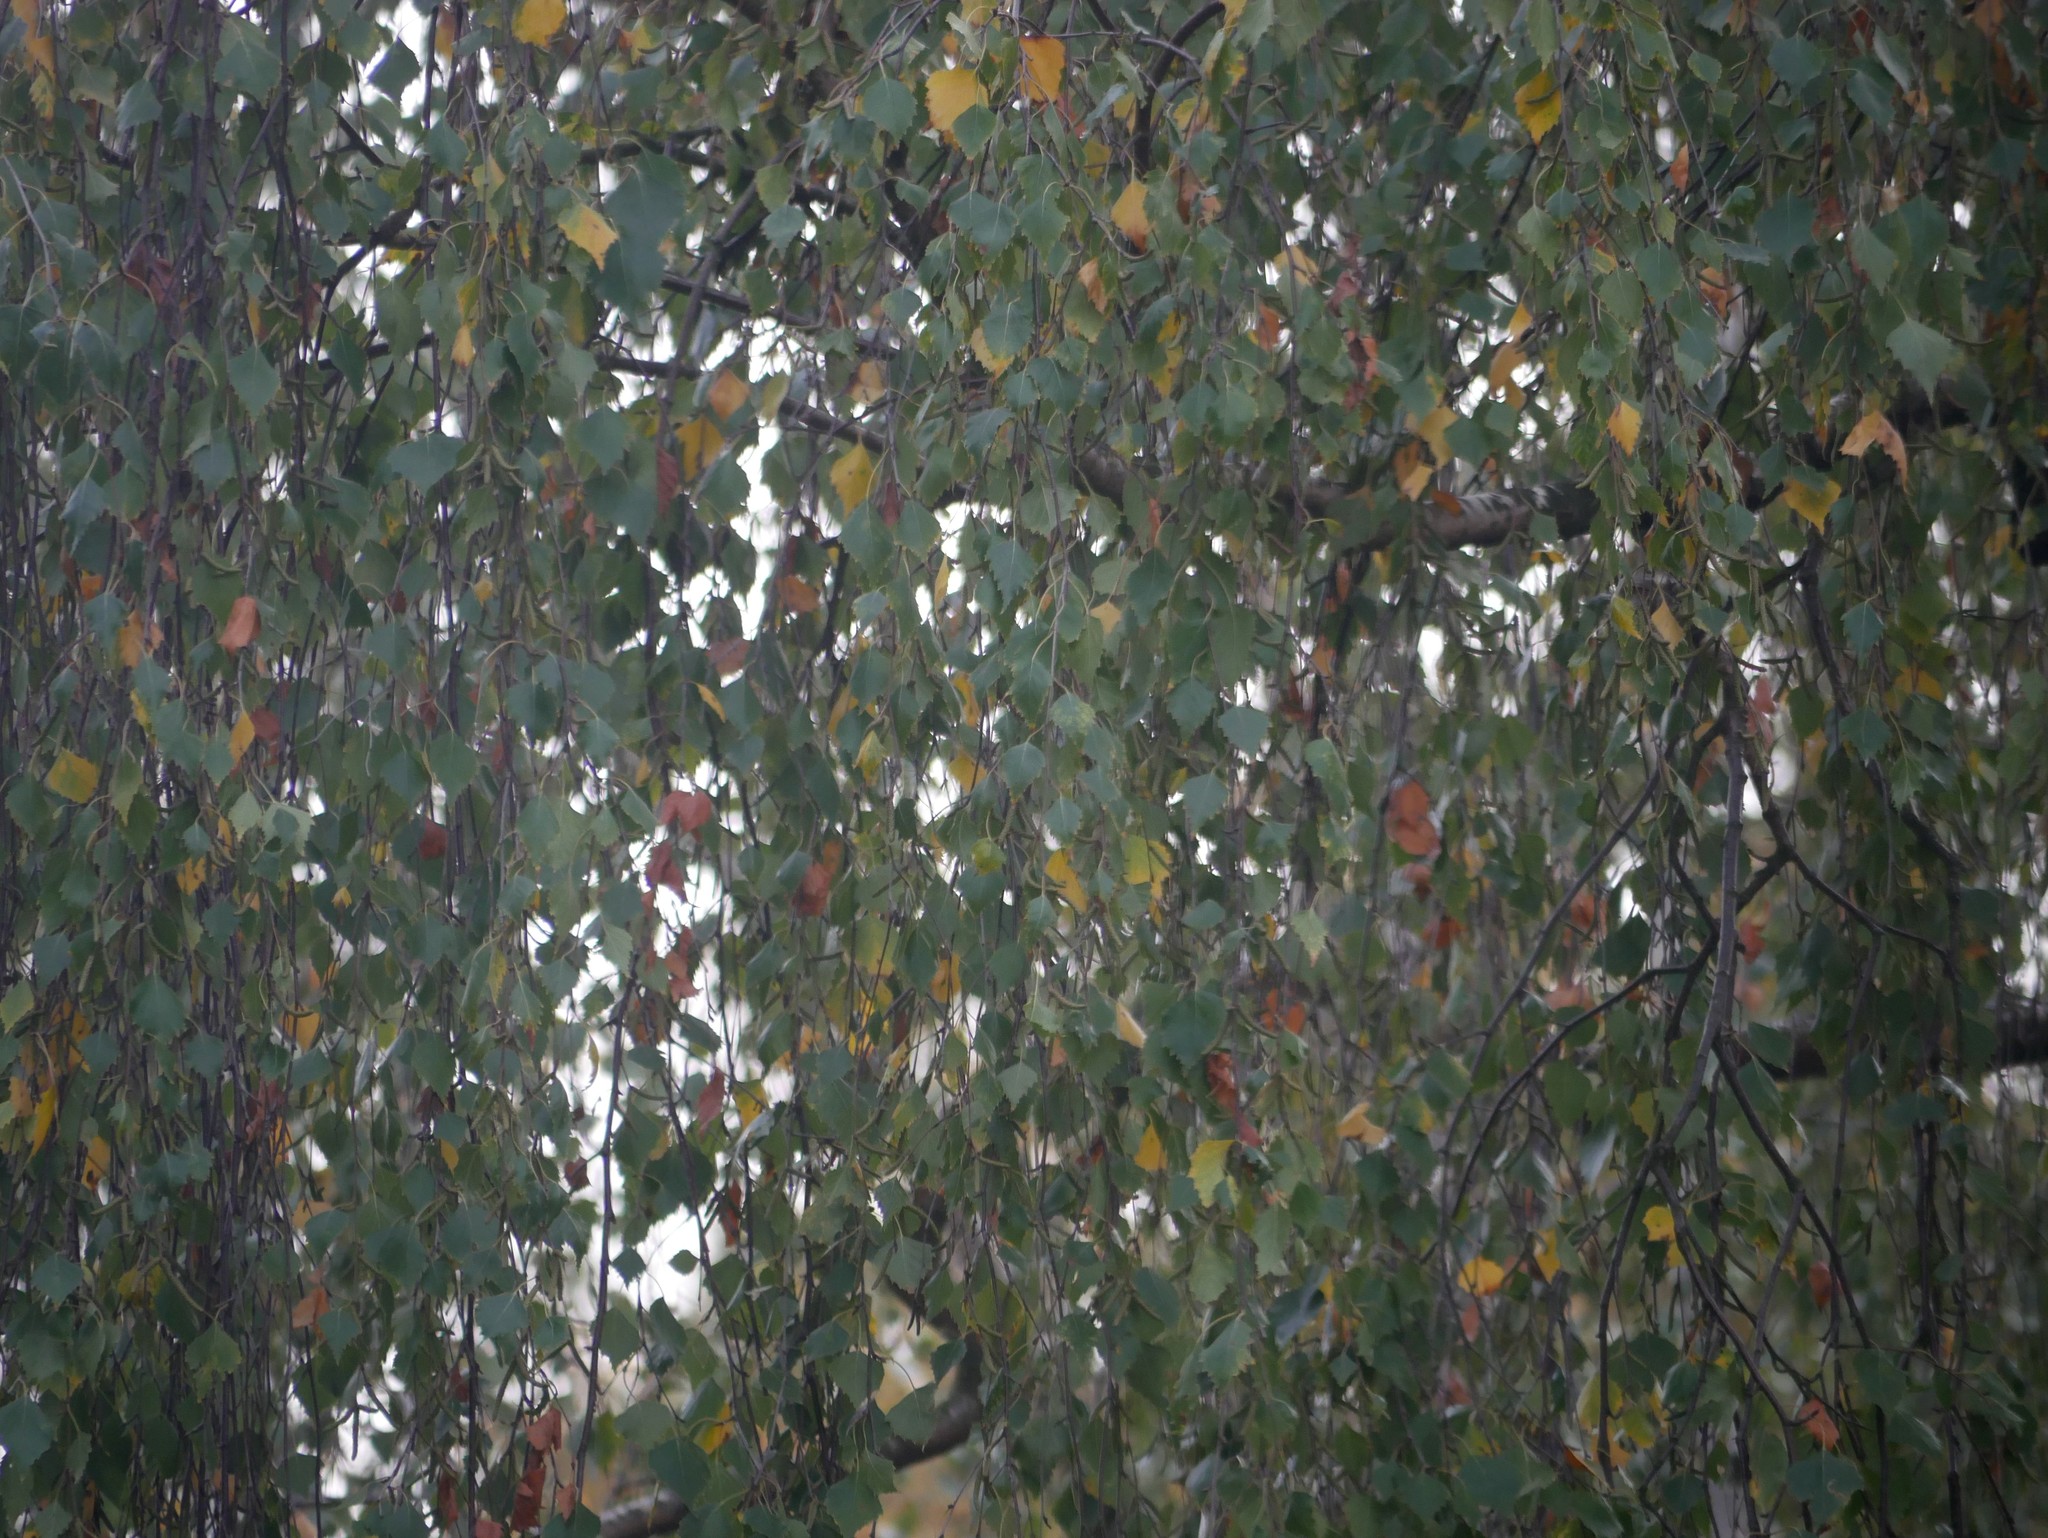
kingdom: Plantae
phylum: Tracheophyta
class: Magnoliopsida
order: Fagales
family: Betulaceae
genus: Betula
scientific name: Betula pendula
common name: Silver birch
